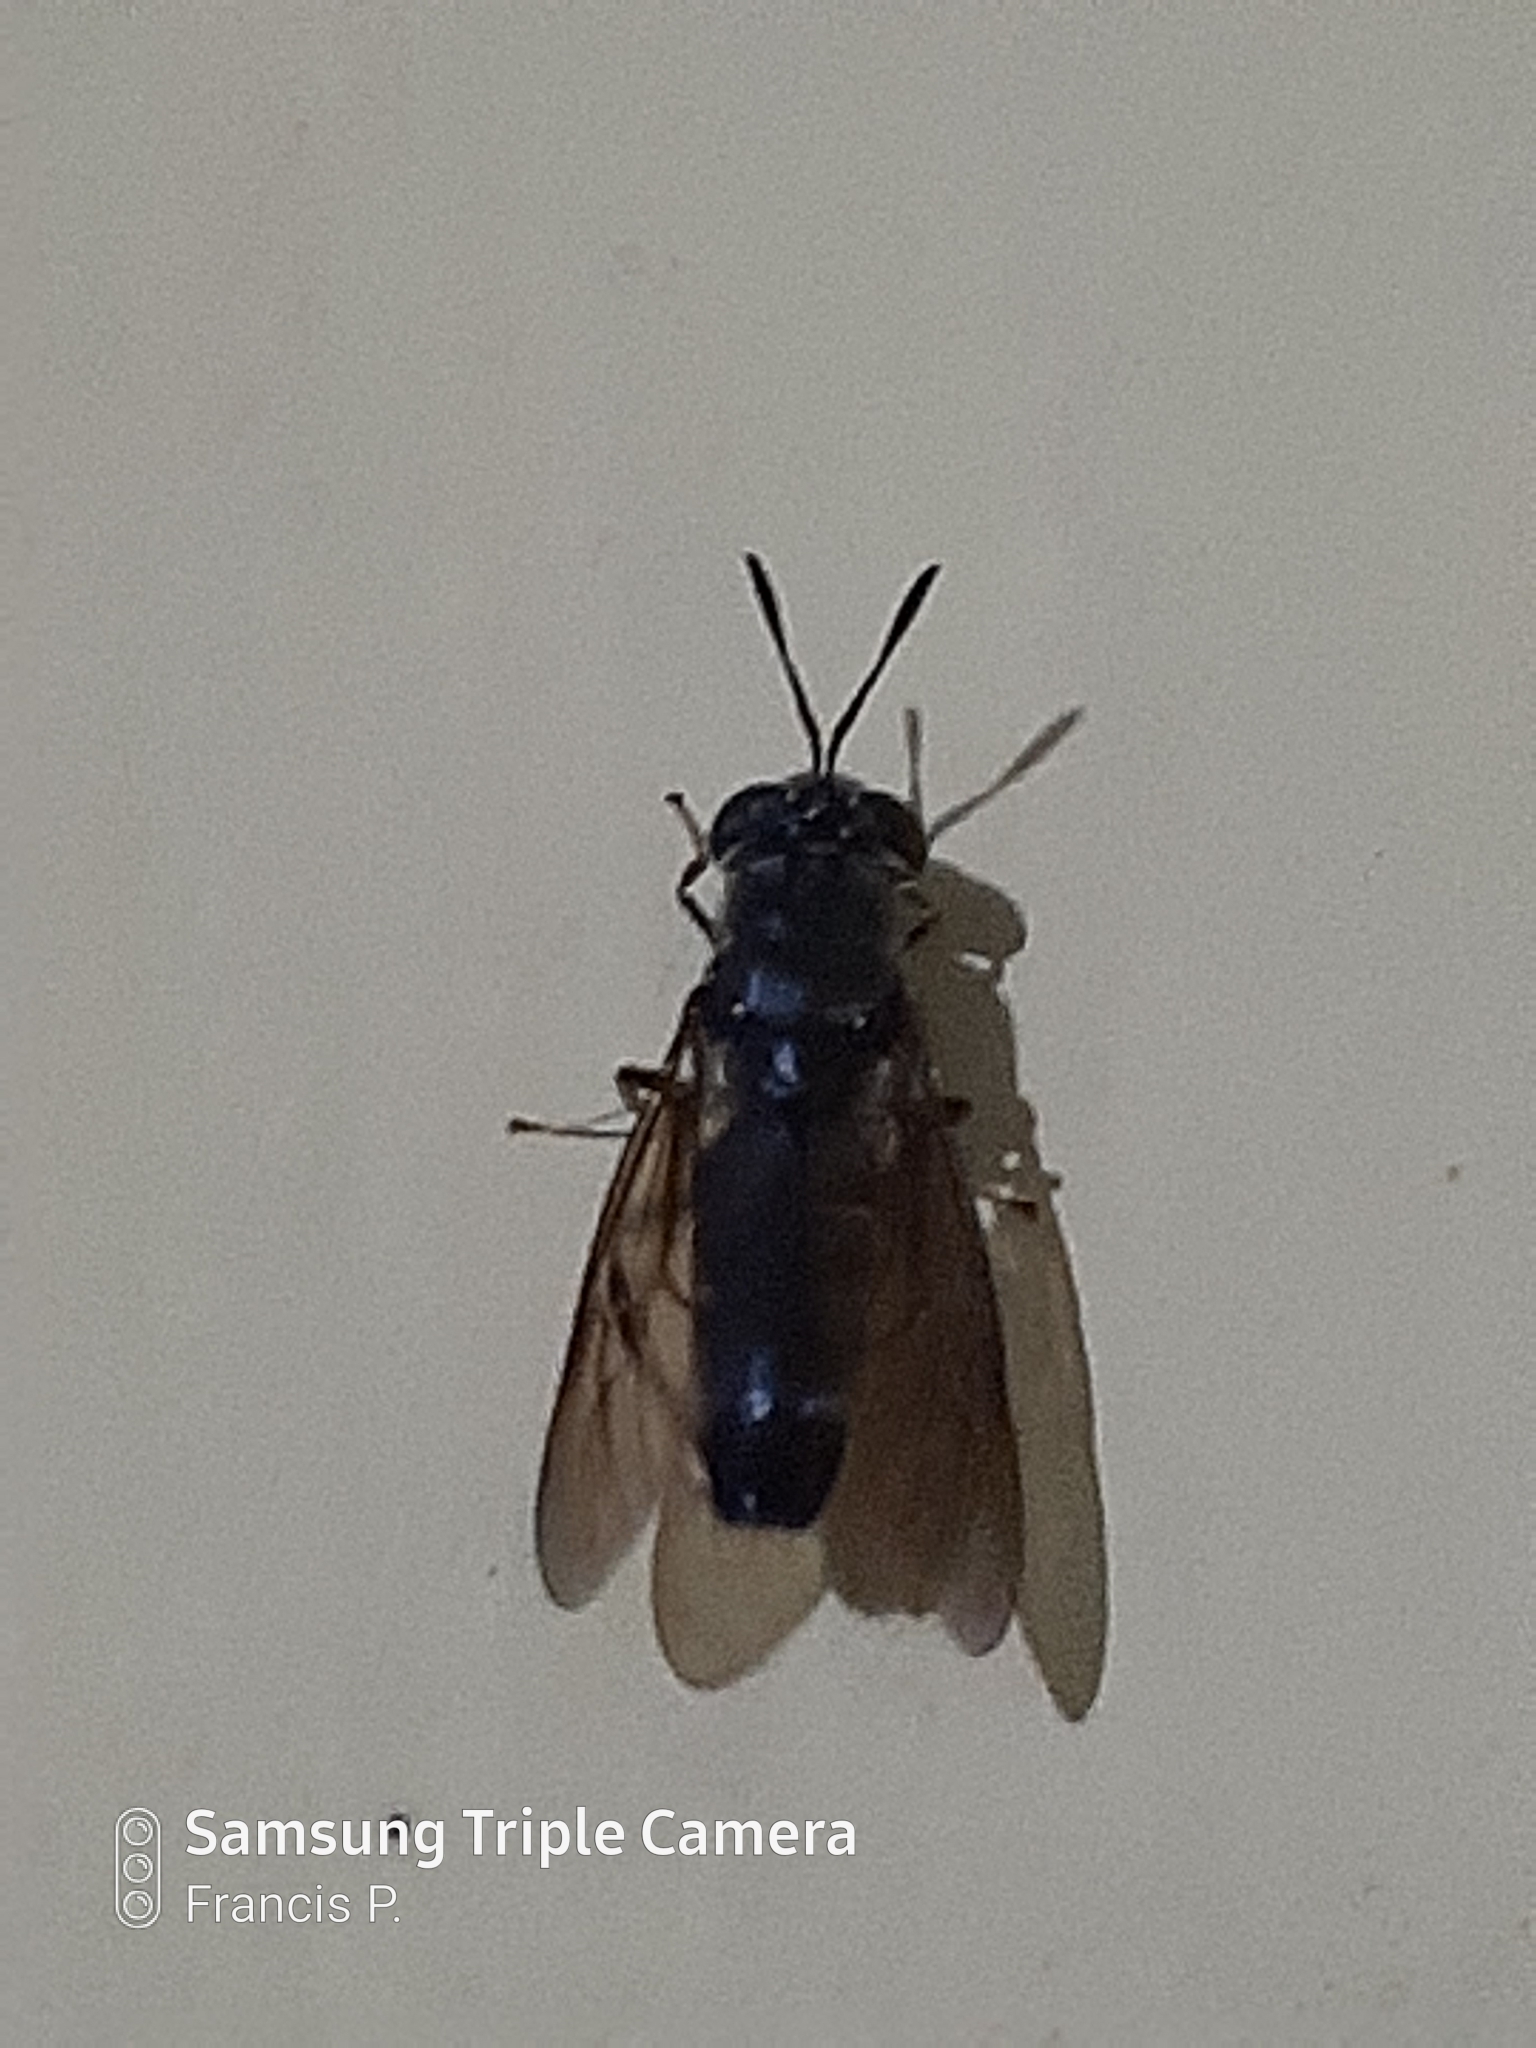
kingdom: Animalia
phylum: Arthropoda
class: Insecta
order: Diptera
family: Stratiomyidae
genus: Hermetia
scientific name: Hermetia illucens
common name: Black soldier fly
